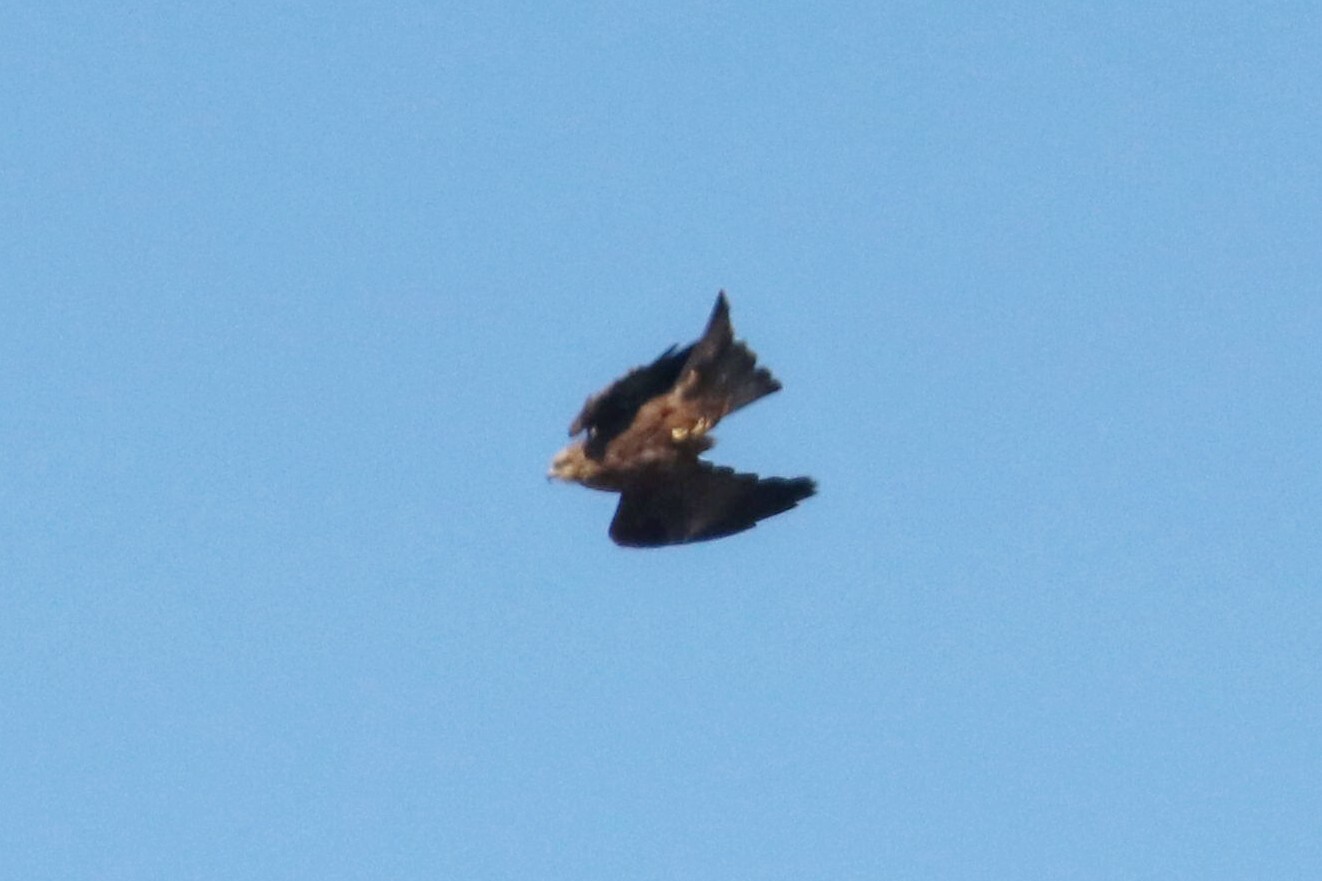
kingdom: Animalia
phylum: Chordata
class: Aves
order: Accipitriformes
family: Accipitridae
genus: Milvus
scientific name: Milvus migrans
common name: Black kite
